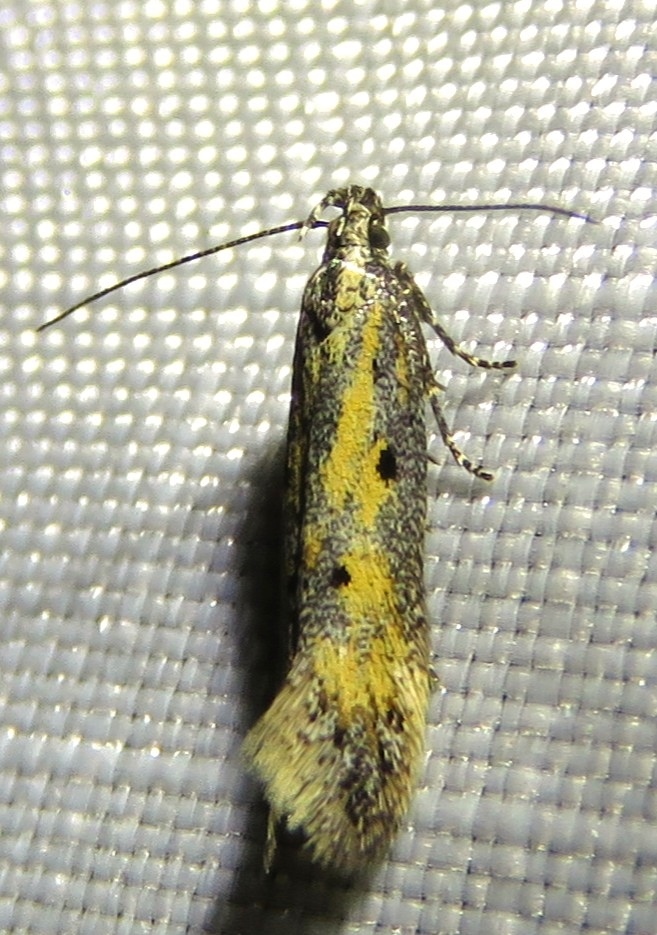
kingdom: Animalia
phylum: Arthropoda
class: Insecta
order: Lepidoptera
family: Gelechiidae
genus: Athrips
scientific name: Athrips tetrapunctella
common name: Northern groundling
